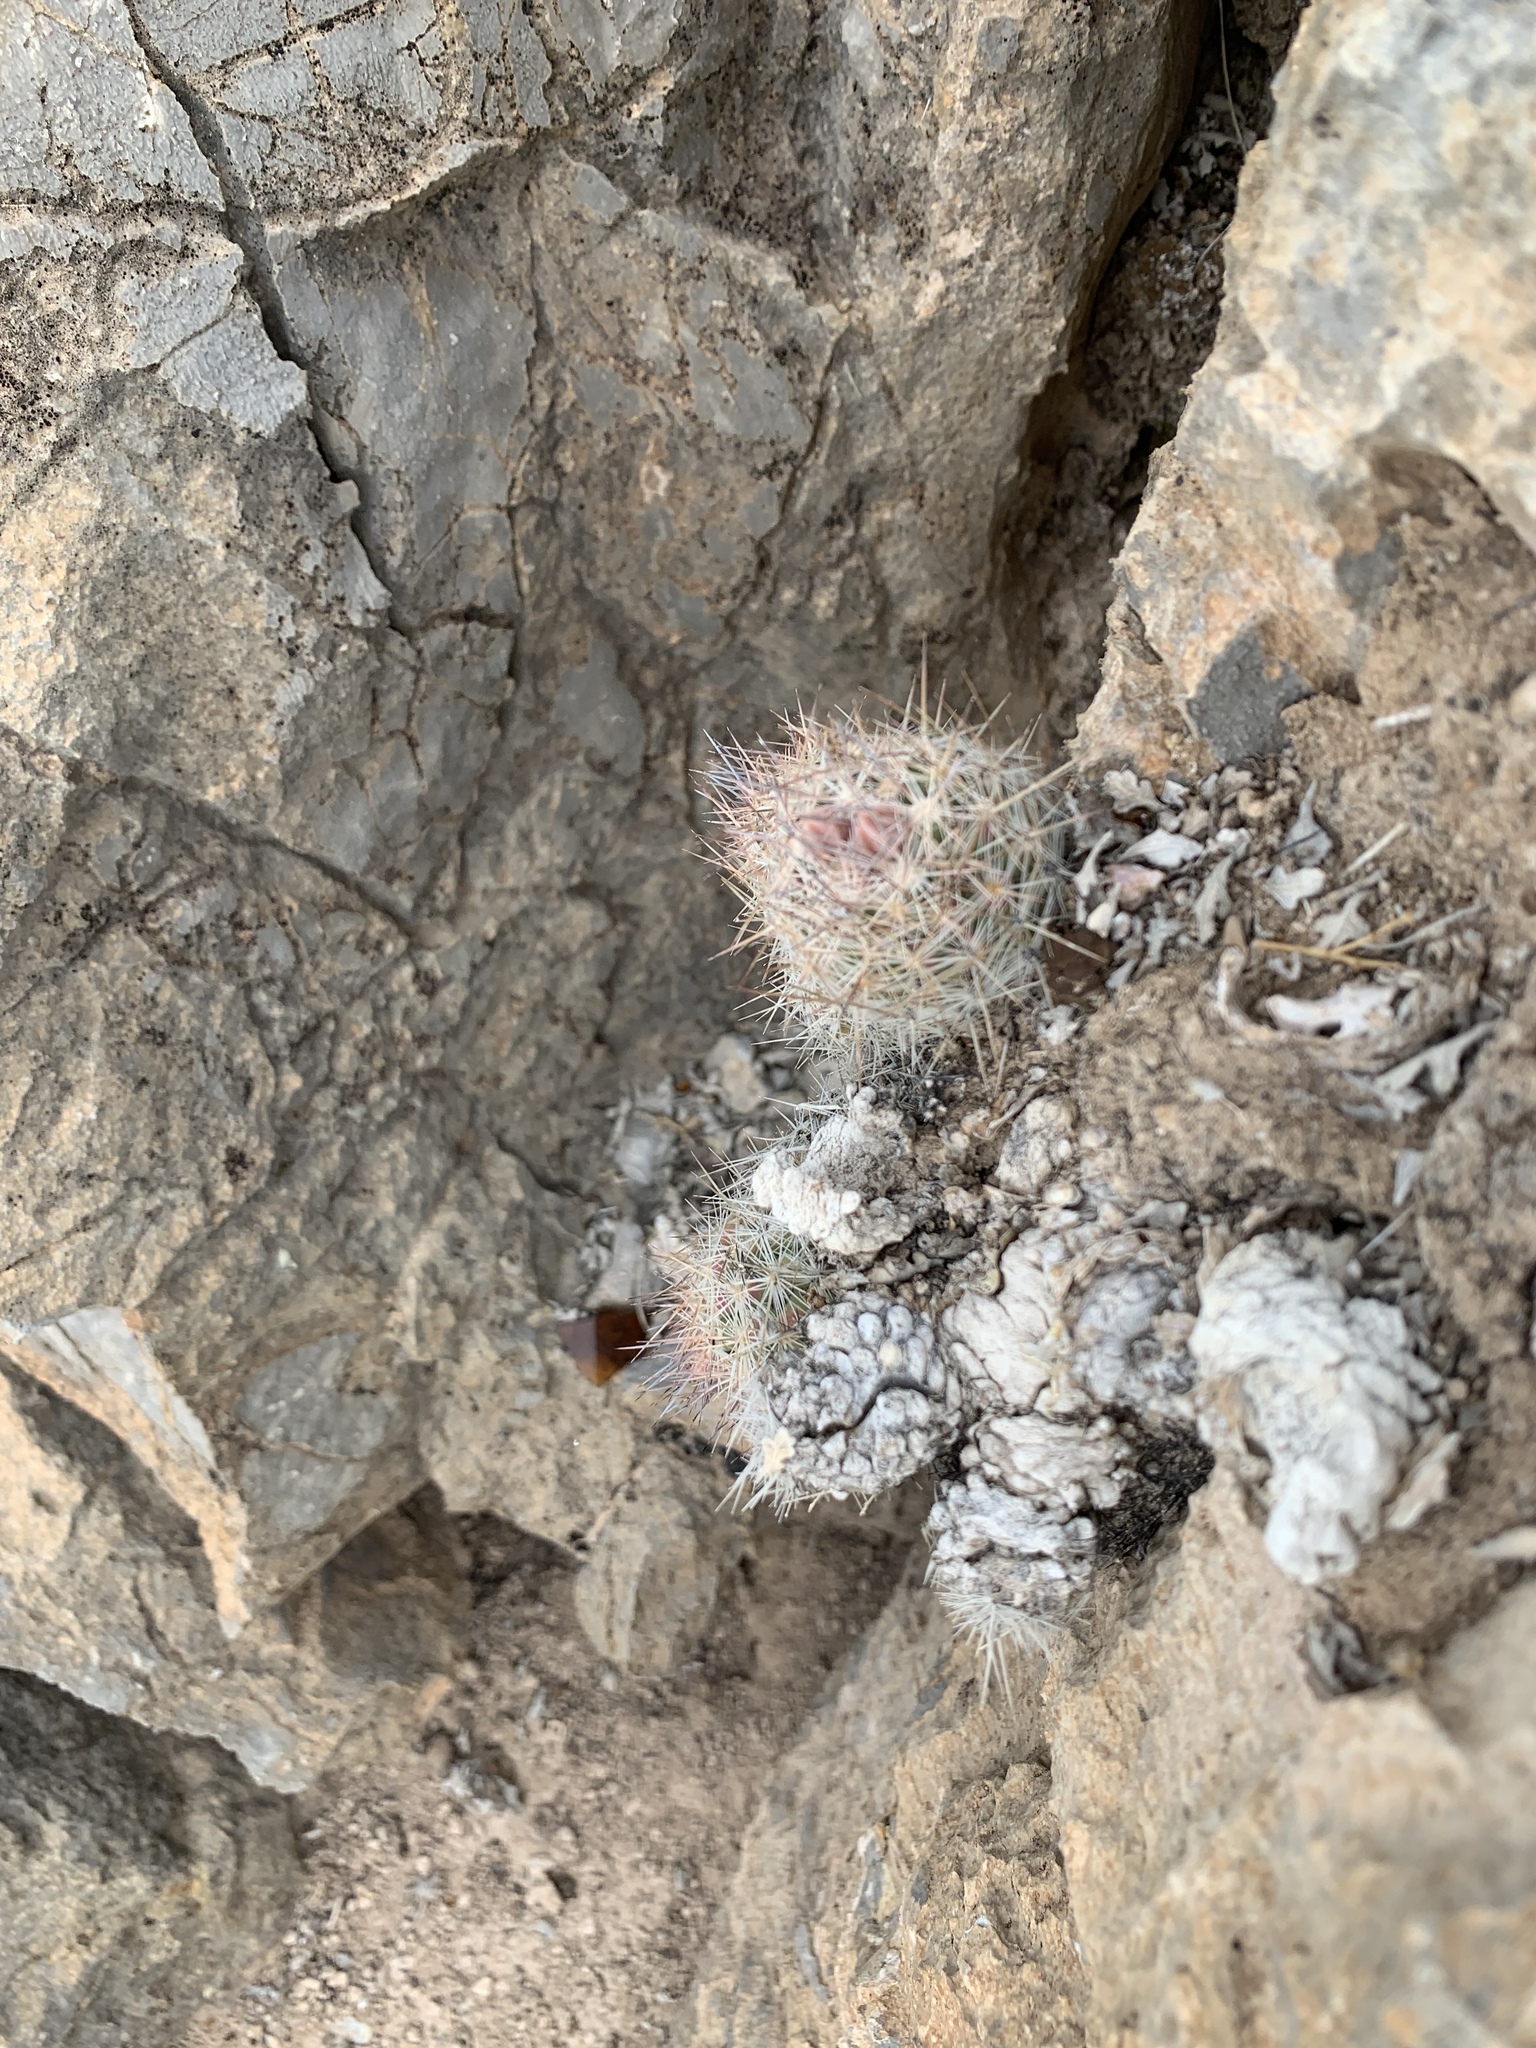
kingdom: Plantae
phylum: Tracheophyta
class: Magnoliopsida
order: Caryophyllales
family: Cactaceae
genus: Pelecyphora
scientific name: Pelecyphora tuberculosa
